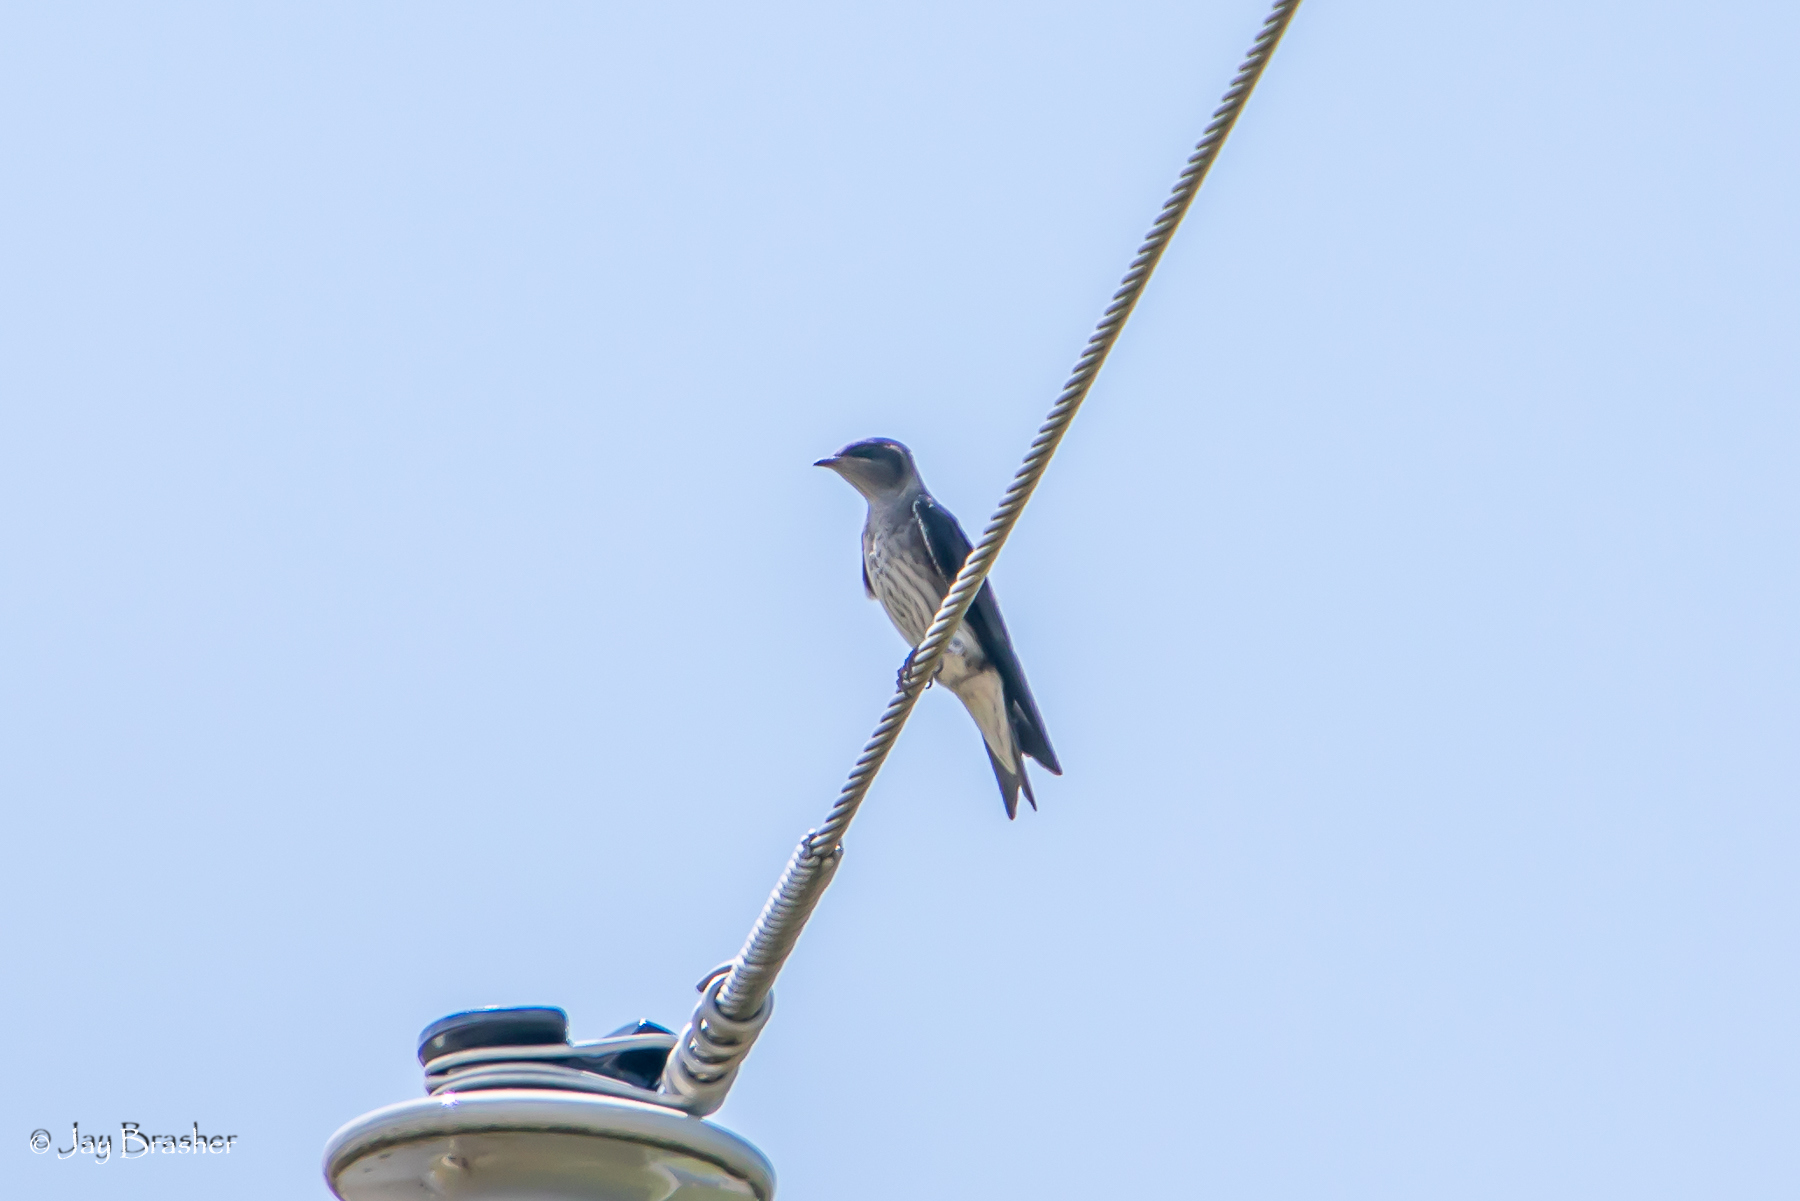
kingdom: Animalia
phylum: Chordata
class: Aves
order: Passeriformes
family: Hirundinidae
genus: Progne
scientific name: Progne subis
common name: Purple martin
